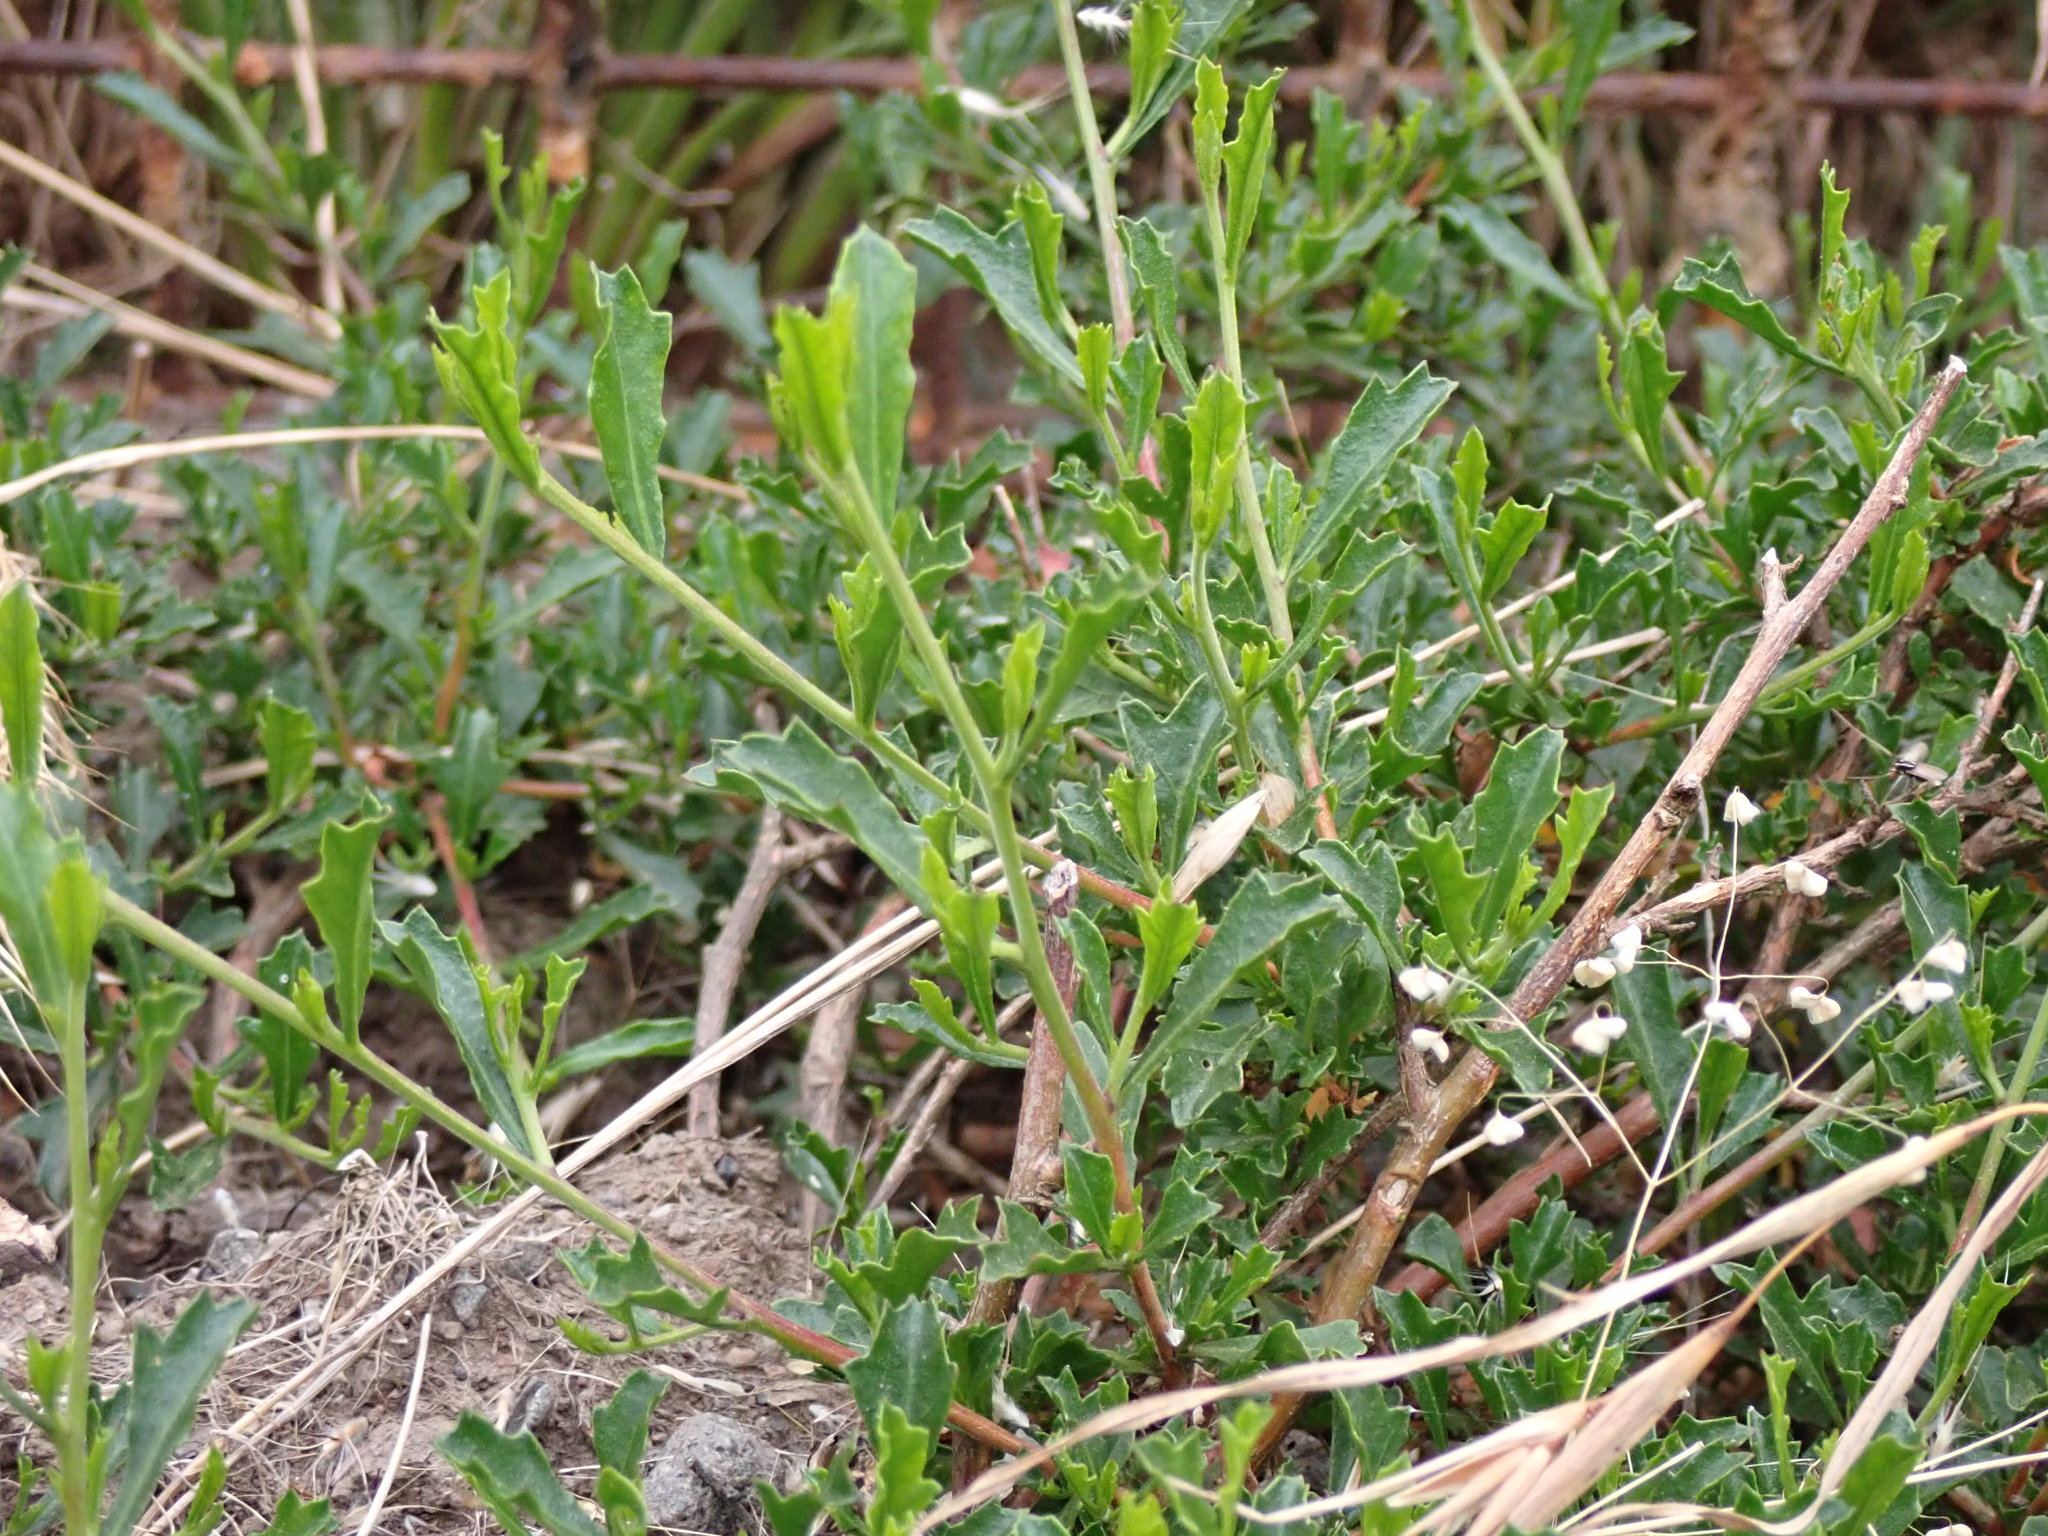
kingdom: Plantae
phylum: Tracheophyta
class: Magnoliopsida
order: Sapindales
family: Sapindaceae
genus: Dodonaea
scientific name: Dodonaea procumbens
